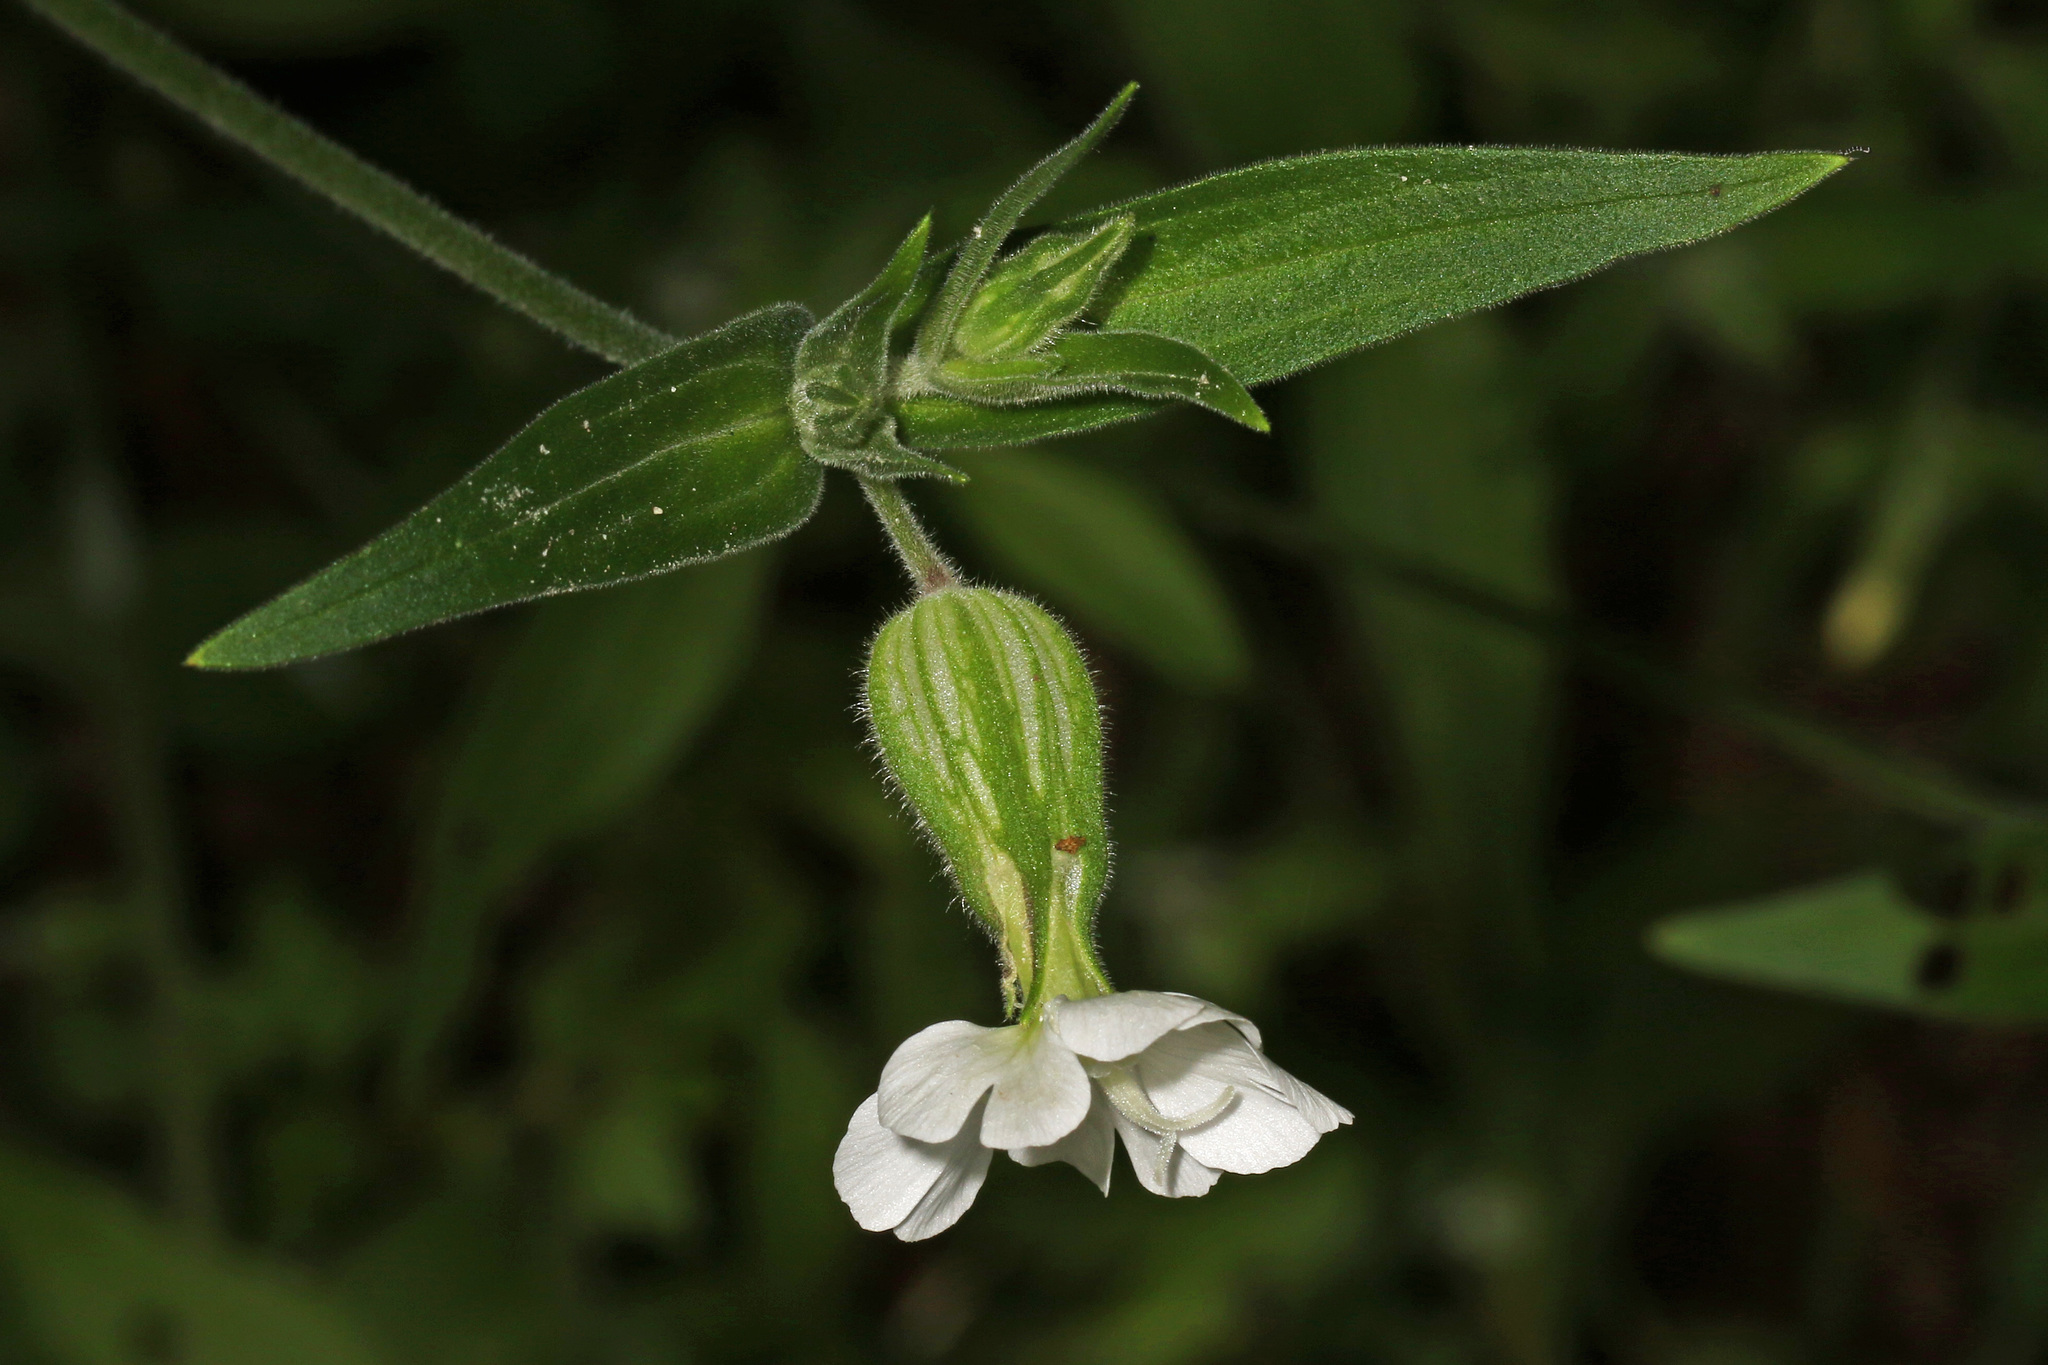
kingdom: Plantae
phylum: Tracheophyta
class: Magnoliopsida
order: Caryophyllales
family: Caryophyllaceae
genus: Silene
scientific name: Silene latifolia
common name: White campion
